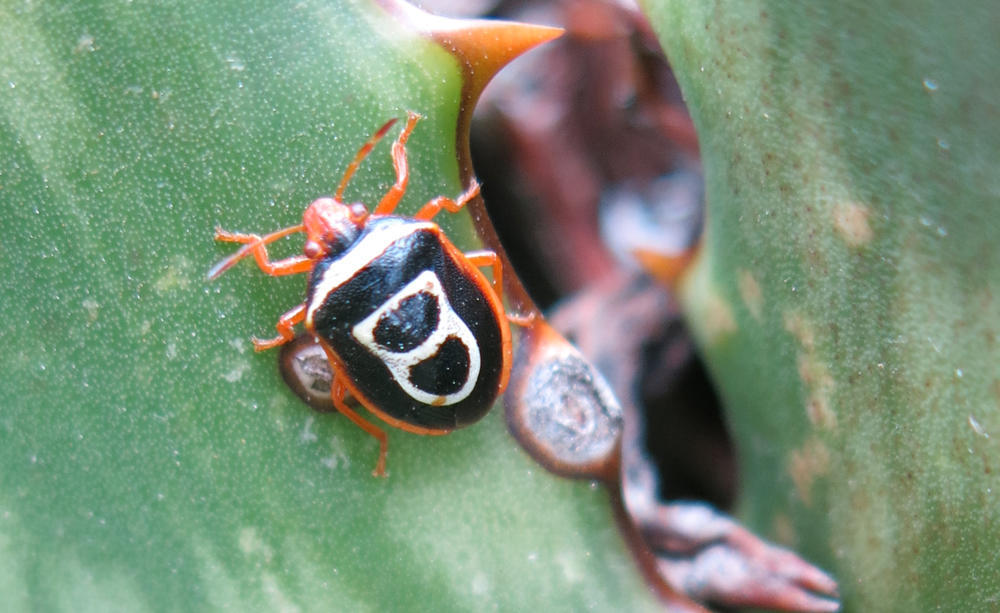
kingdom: Animalia
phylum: Arthropoda
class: Insecta
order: Hemiptera
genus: Flaminia
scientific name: Flaminia
